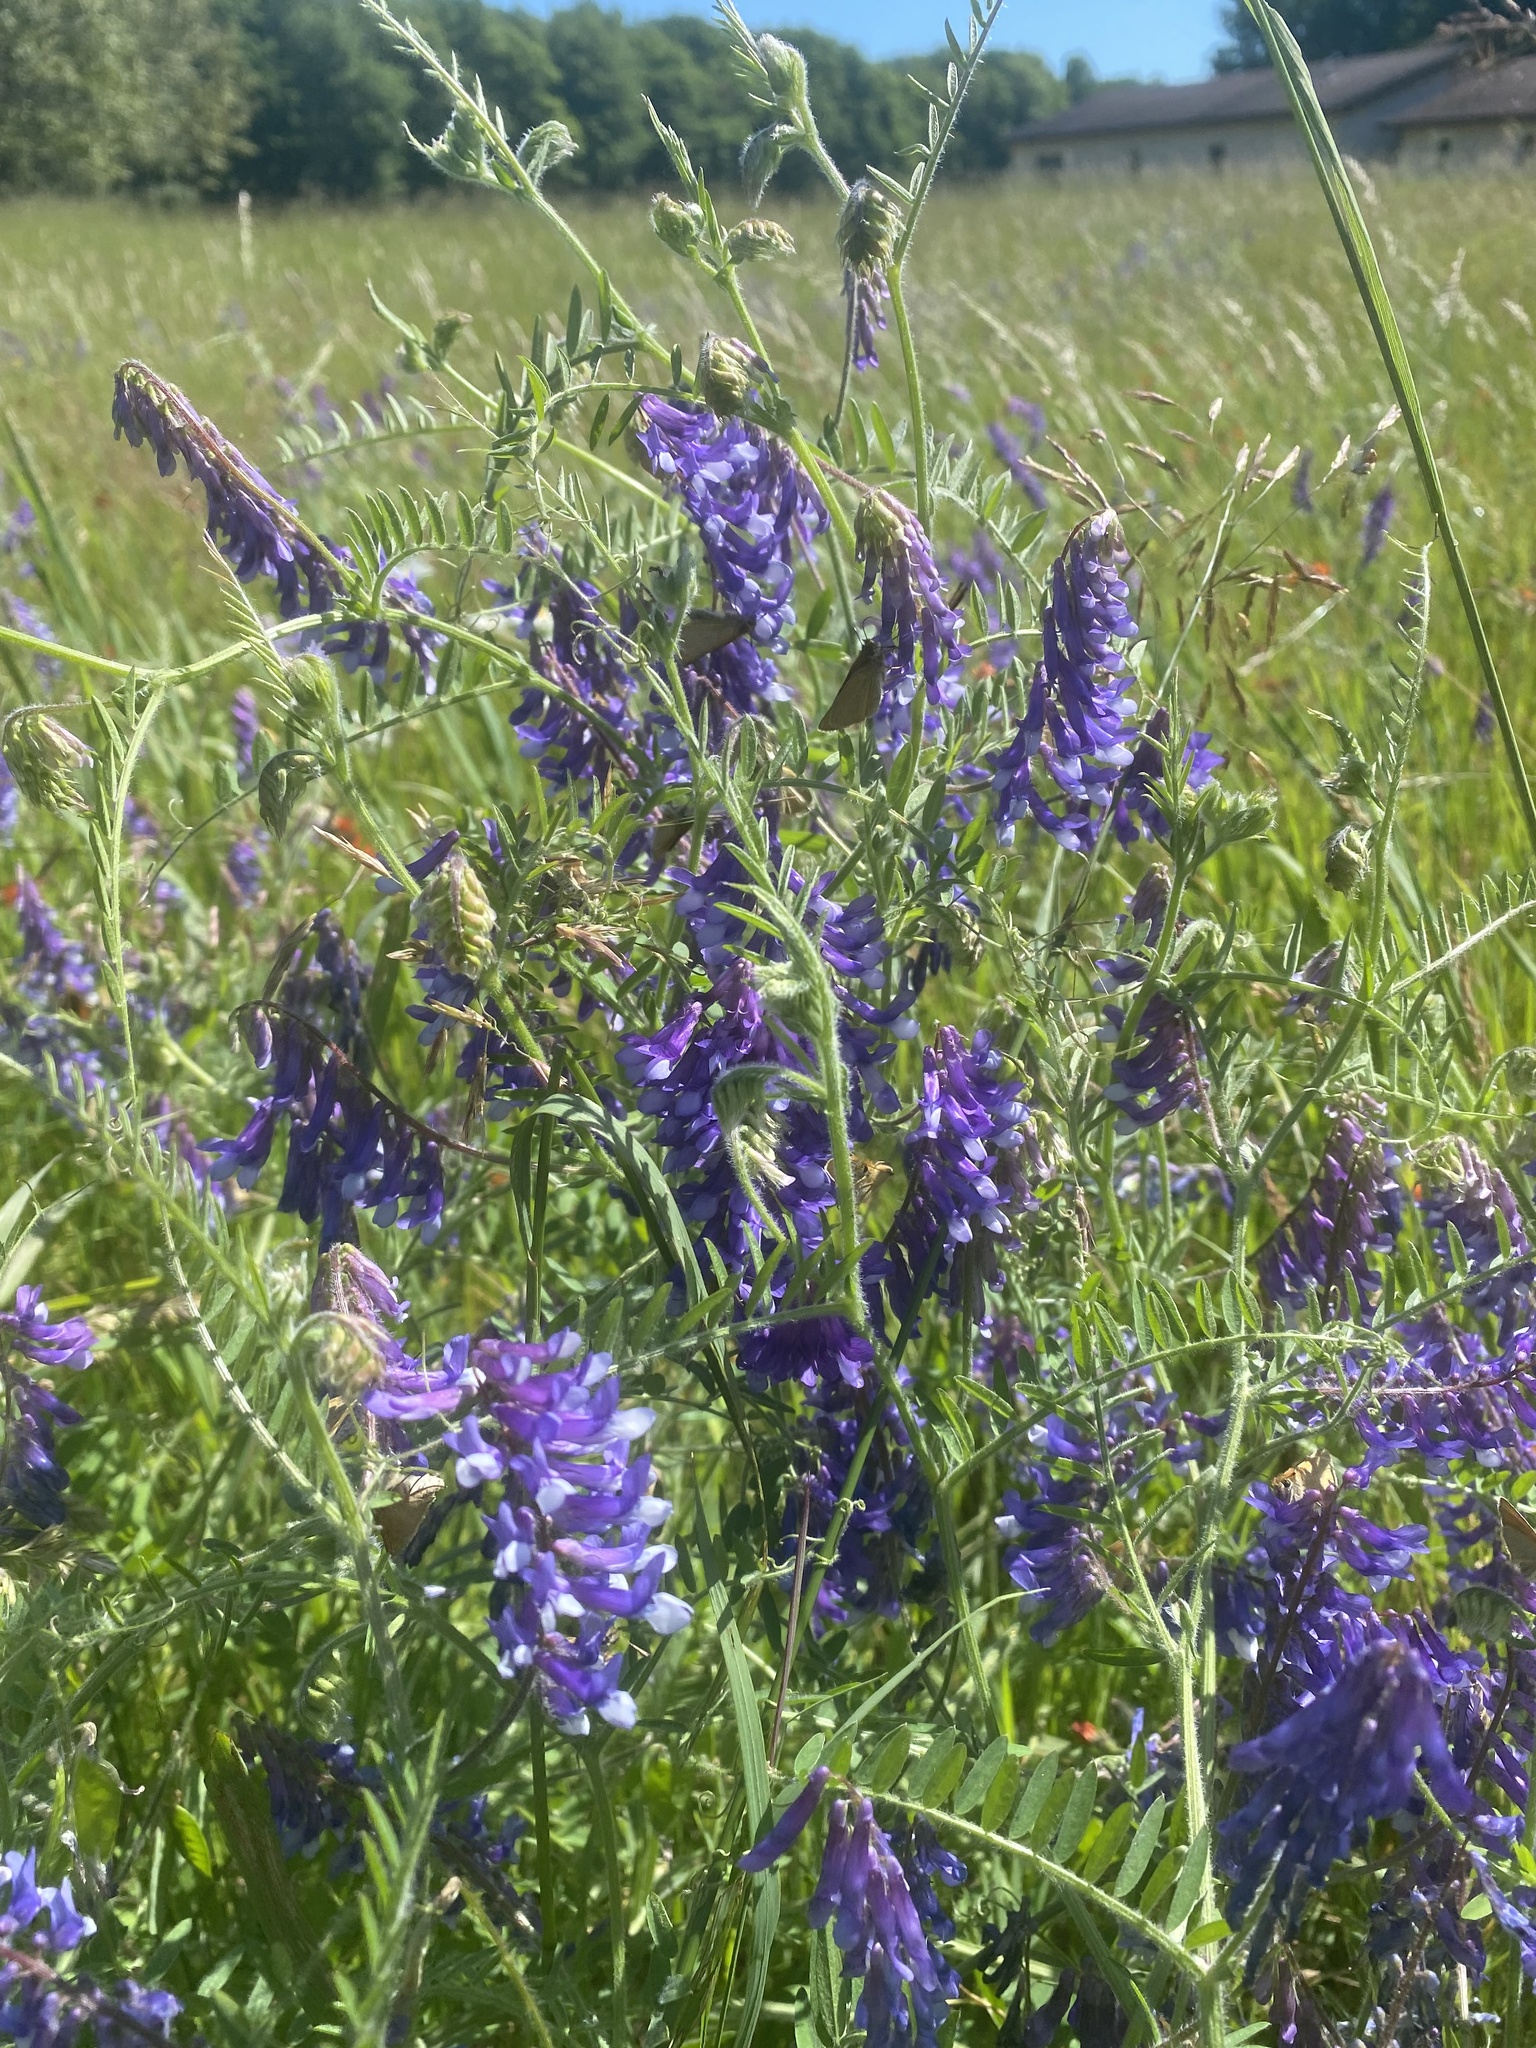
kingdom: Plantae
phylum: Tracheophyta
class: Magnoliopsida
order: Fabales
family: Fabaceae
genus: Vicia
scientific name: Vicia villosa
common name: Fodder vetch
